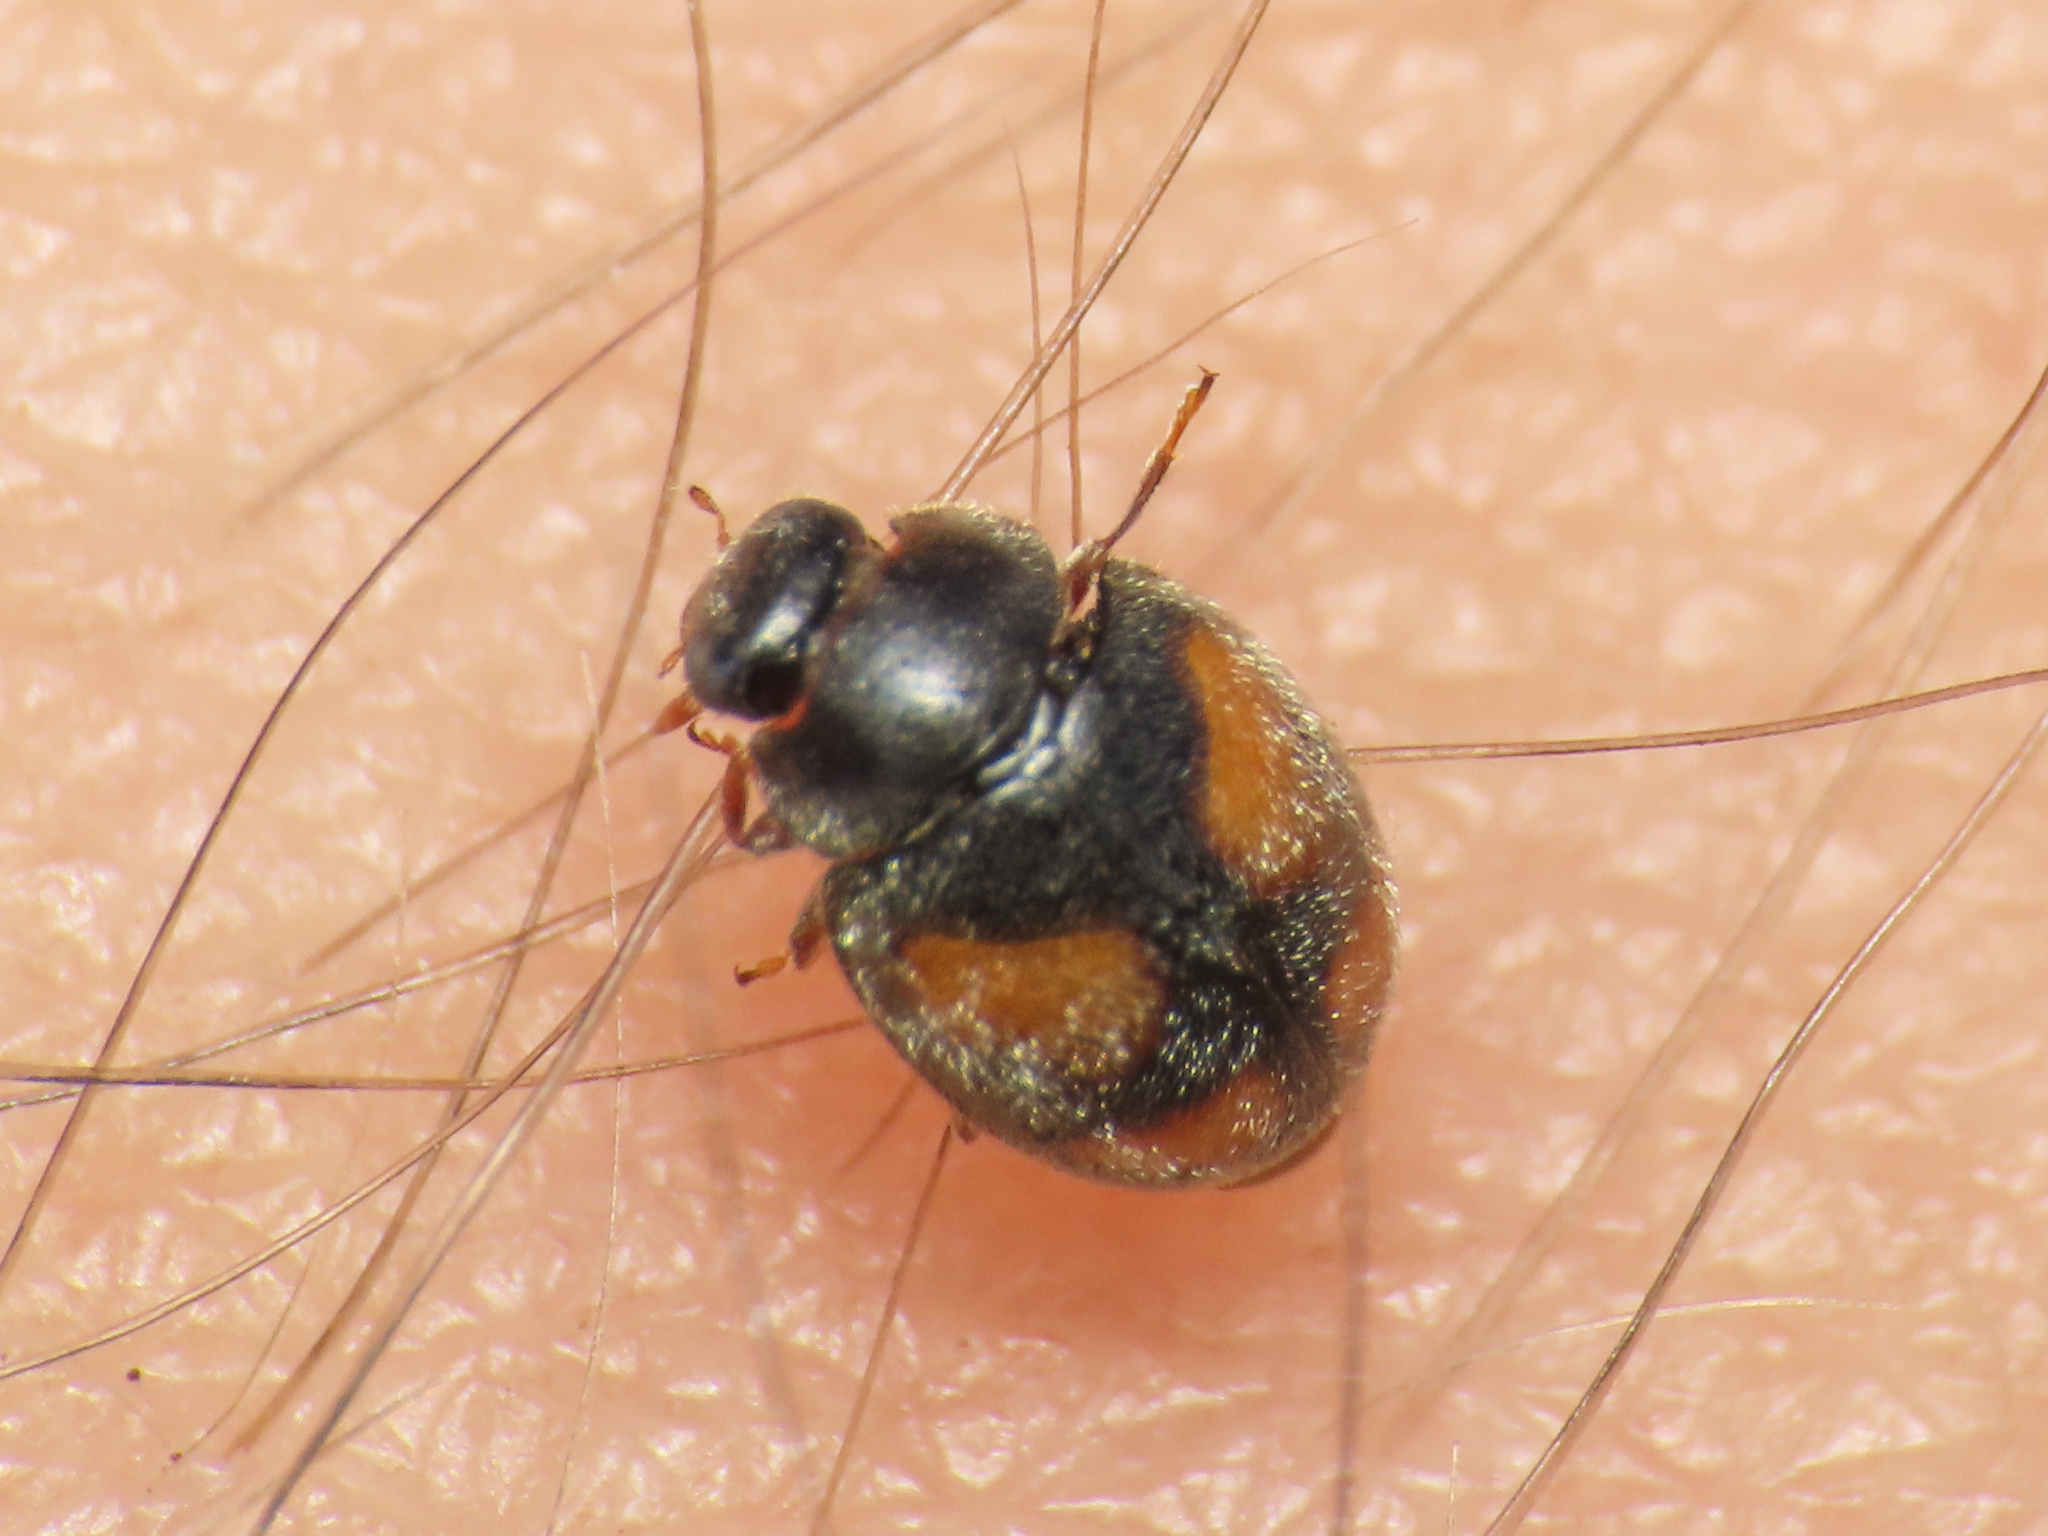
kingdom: Animalia
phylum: Arthropoda
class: Insecta
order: Coleoptera
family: Coccinellidae
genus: Nephus
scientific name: Nephus quadrimaculatus
